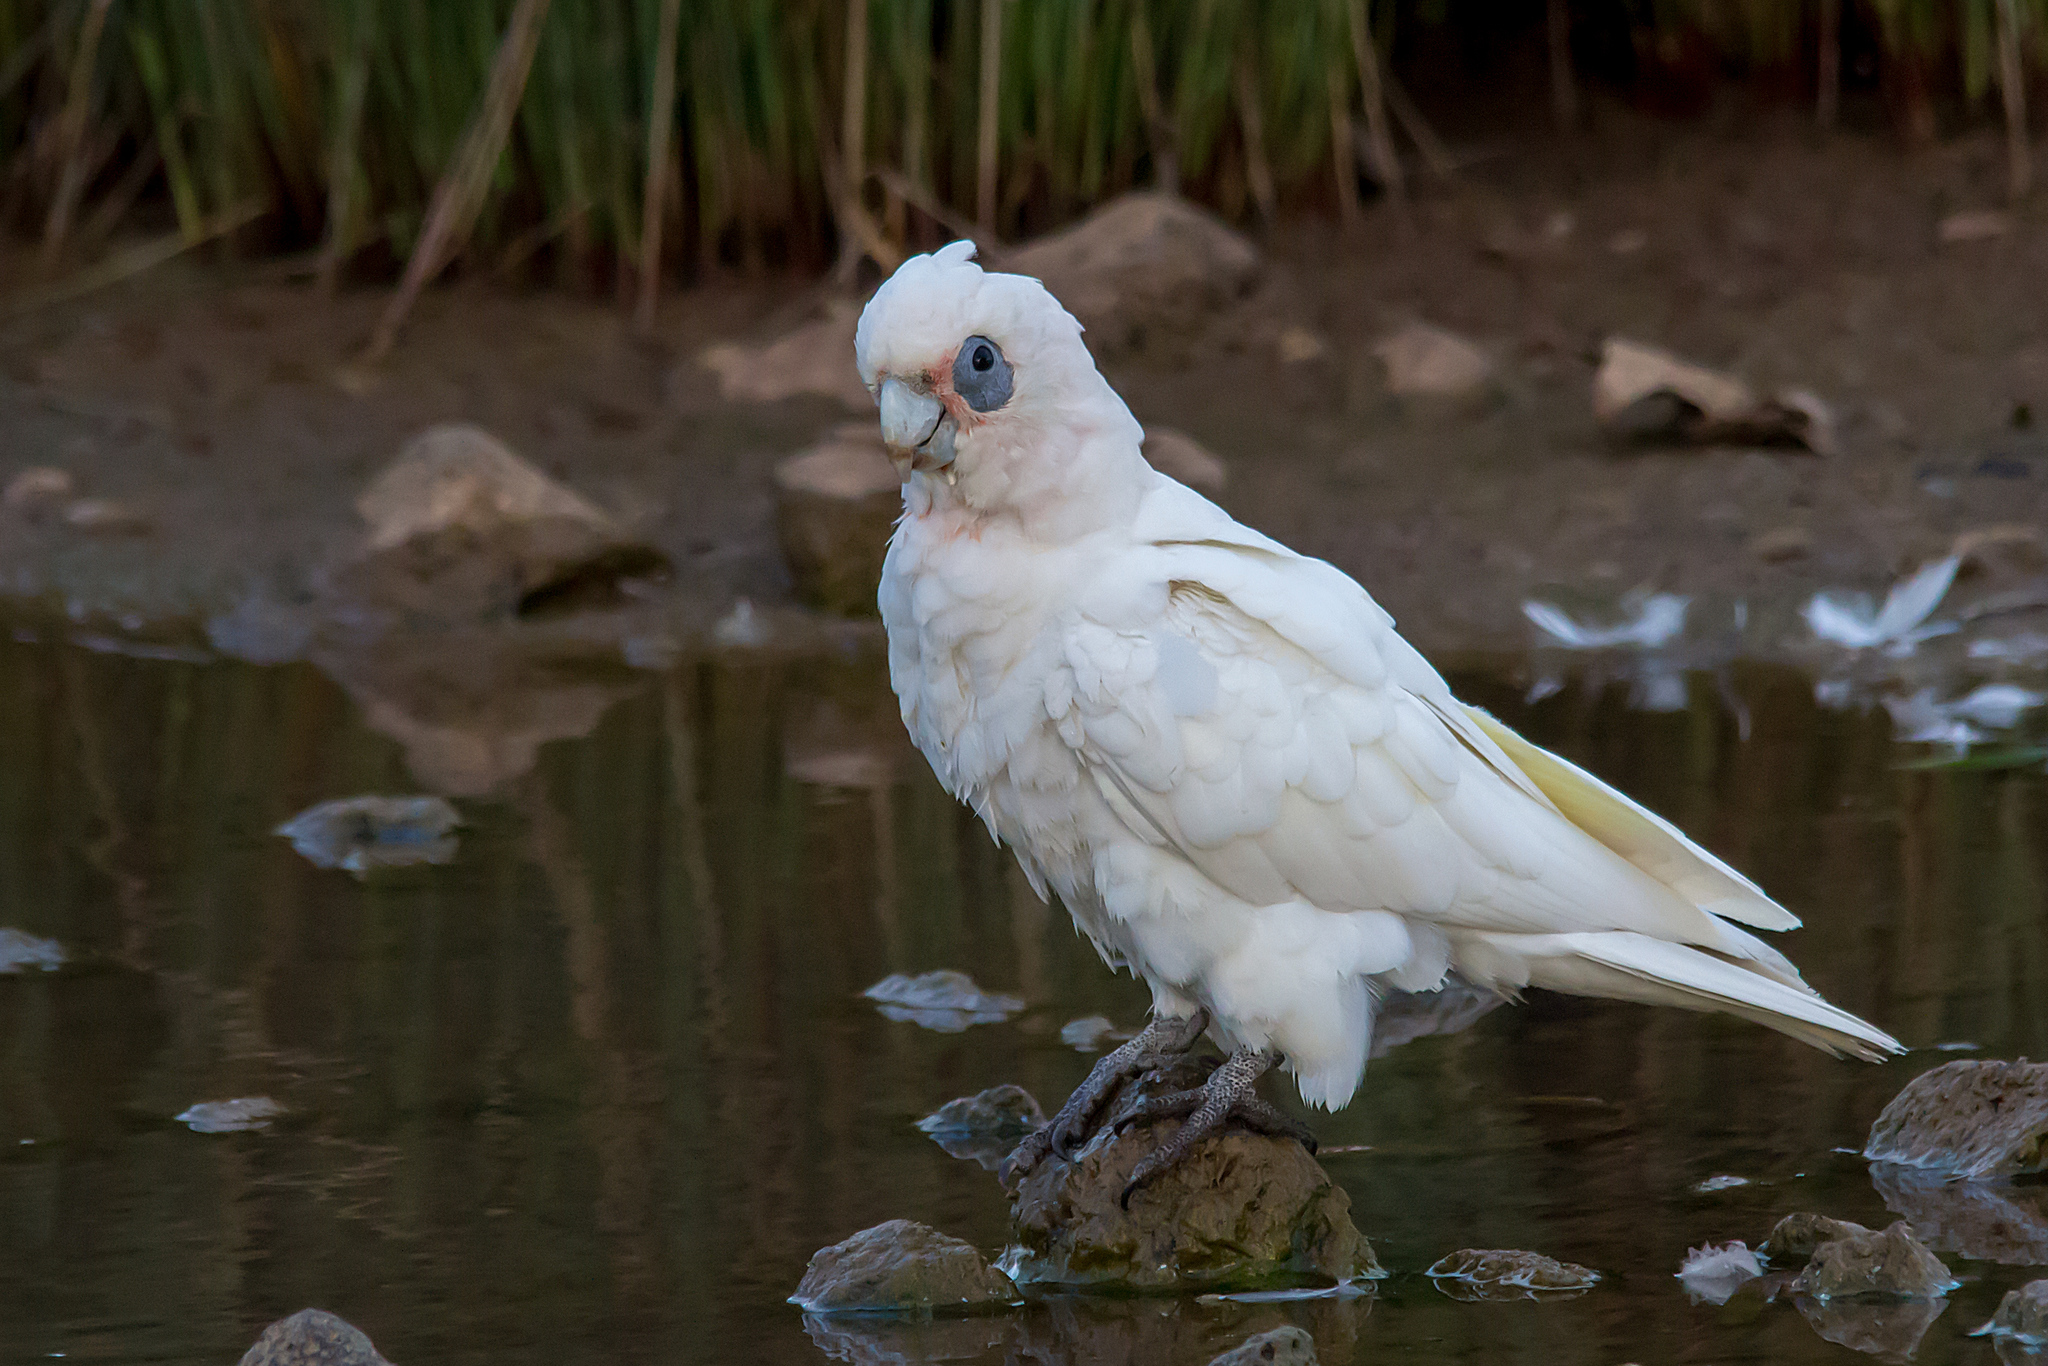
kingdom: Animalia
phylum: Chordata
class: Aves
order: Psittaciformes
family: Psittacidae
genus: Cacatua
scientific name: Cacatua sanguinea
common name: Little corella
